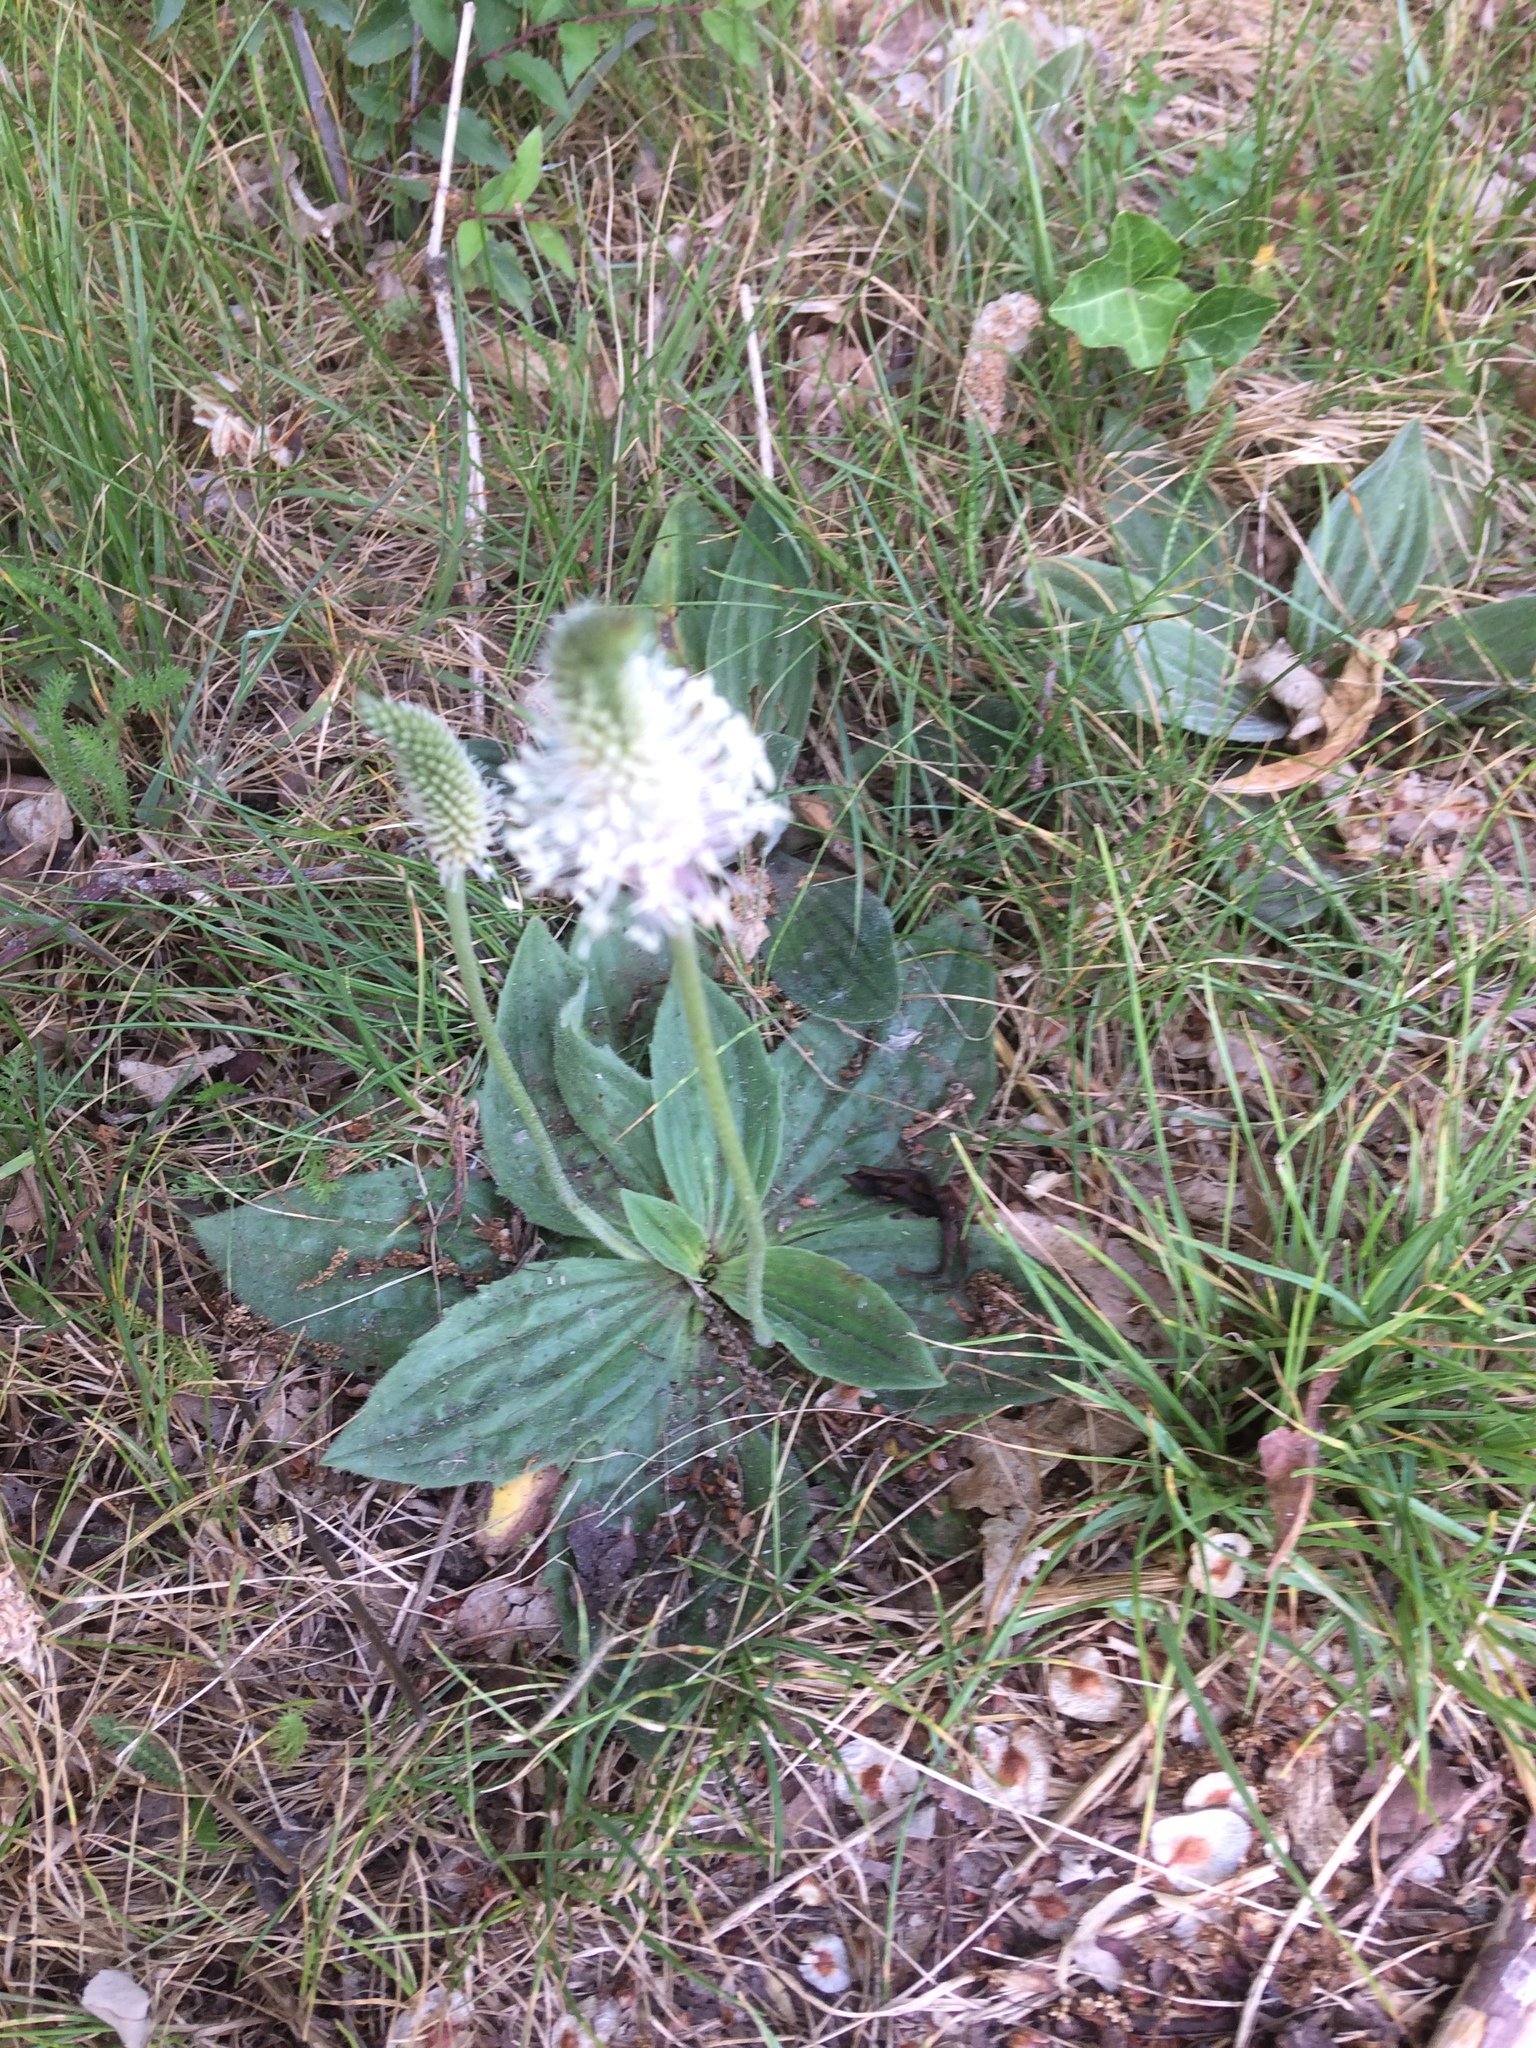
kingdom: Plantae
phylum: Tracheophyta
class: Magnoliopsida
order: Lamiales
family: Plantaginaceae
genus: Plantago
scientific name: Plantago media
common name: Hoary plantain
